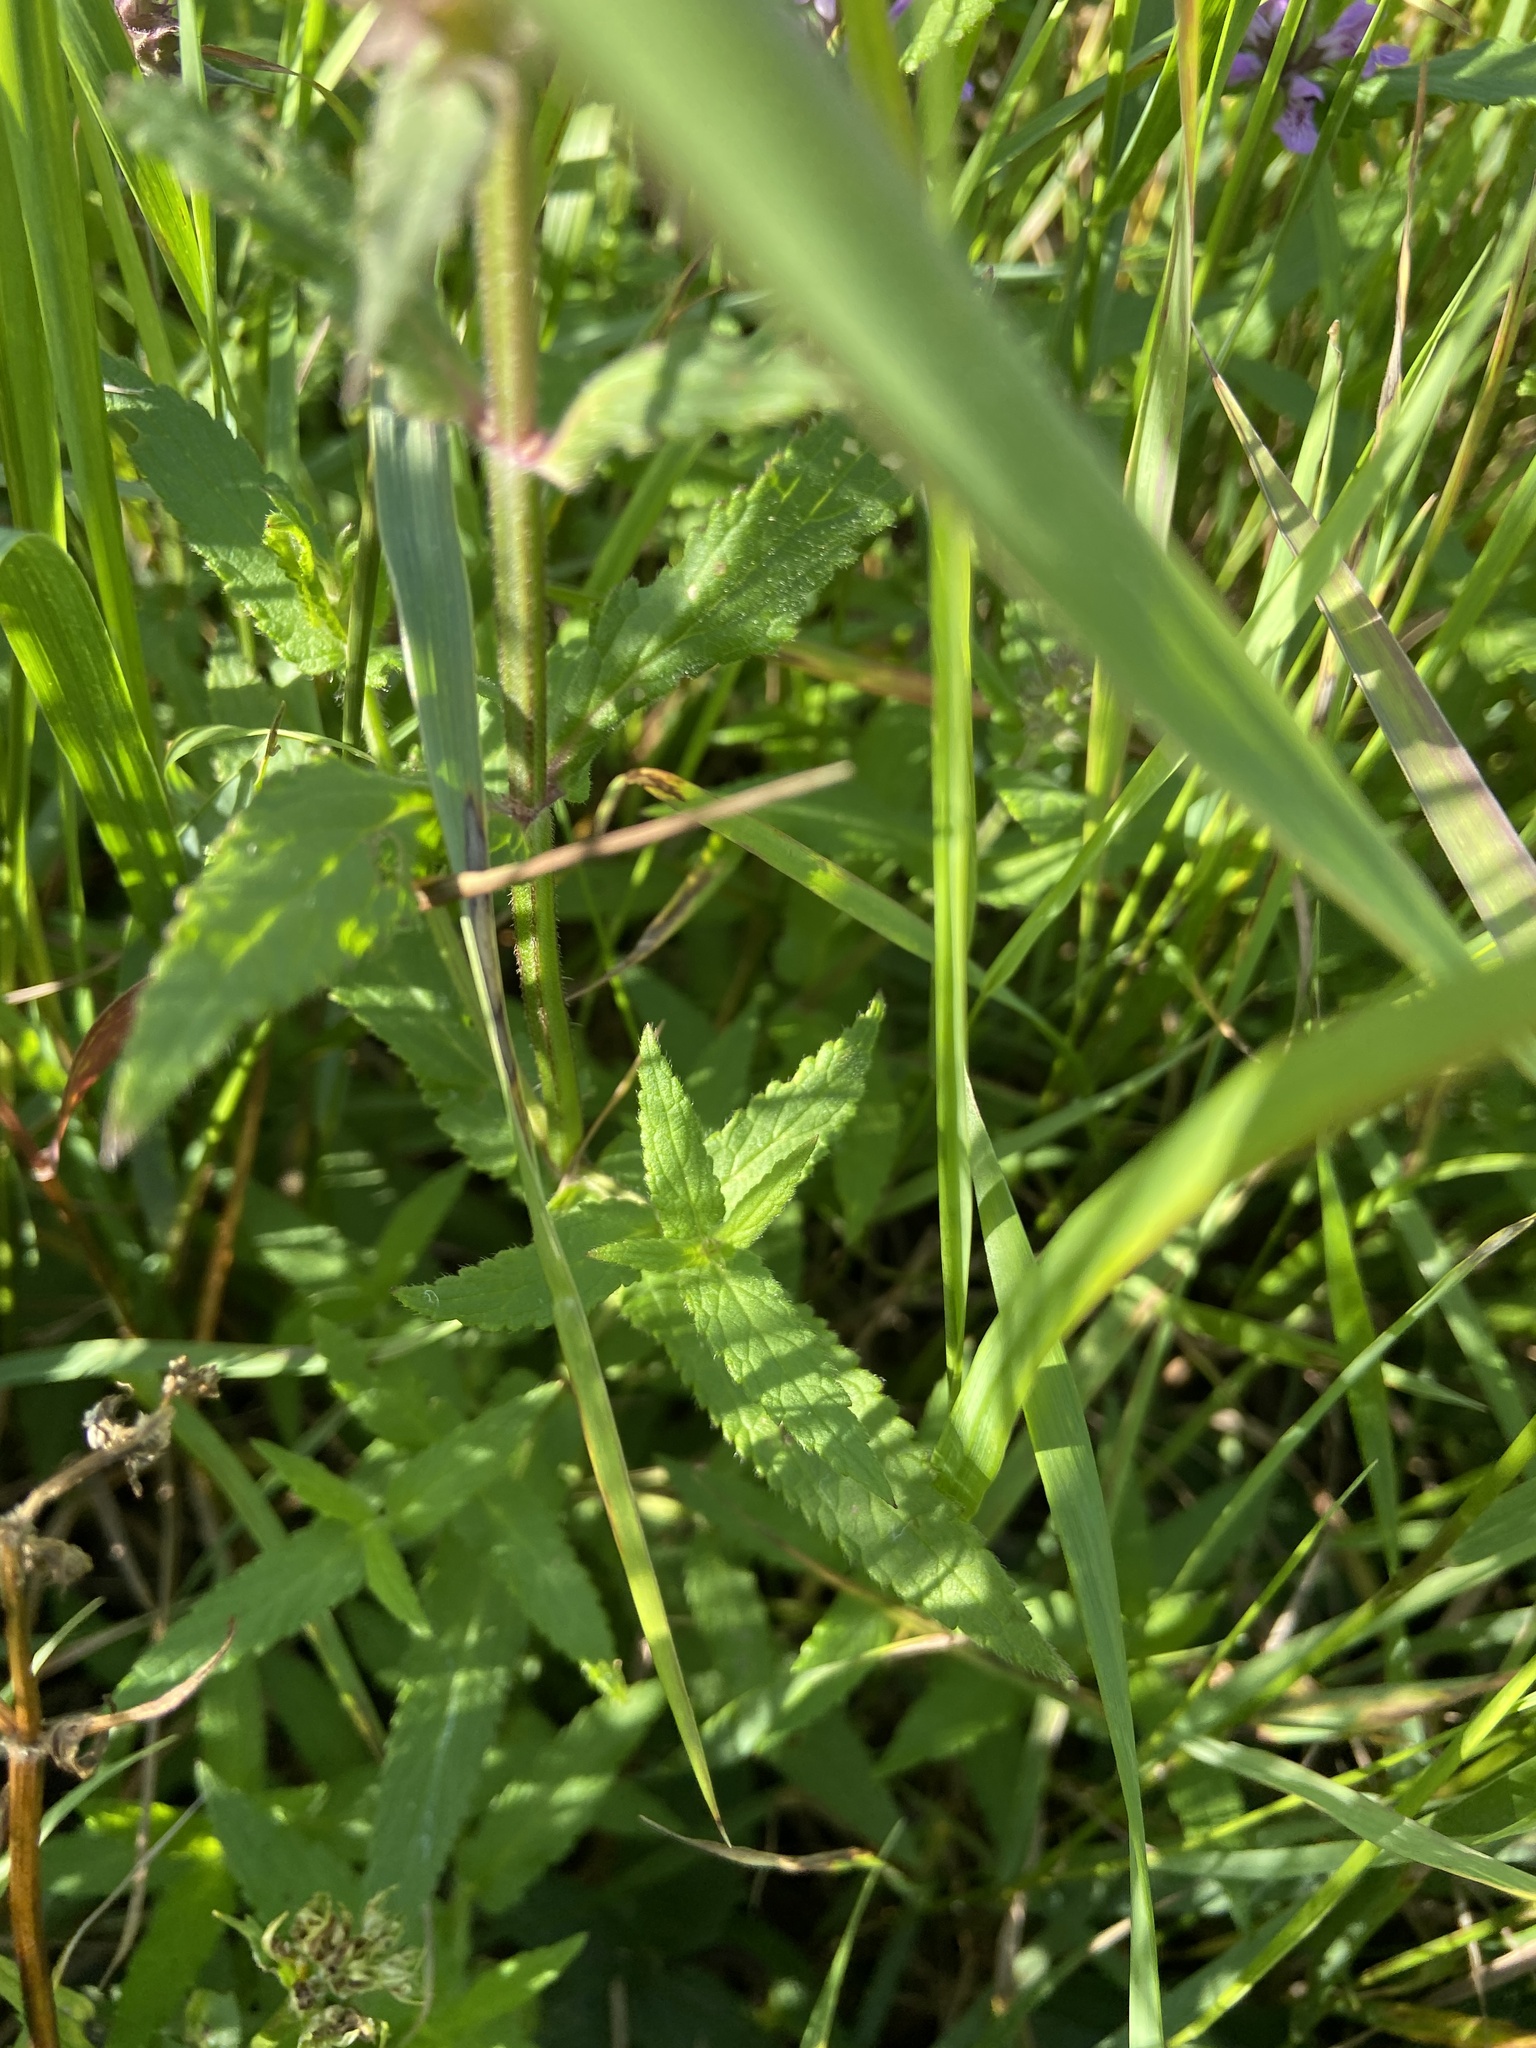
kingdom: Plantae
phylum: Tracheophyta
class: Magnoliopsida
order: Lamiales
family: Lamiaceae
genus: Stachys
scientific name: Stachys palustris
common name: Marsh woundwort
